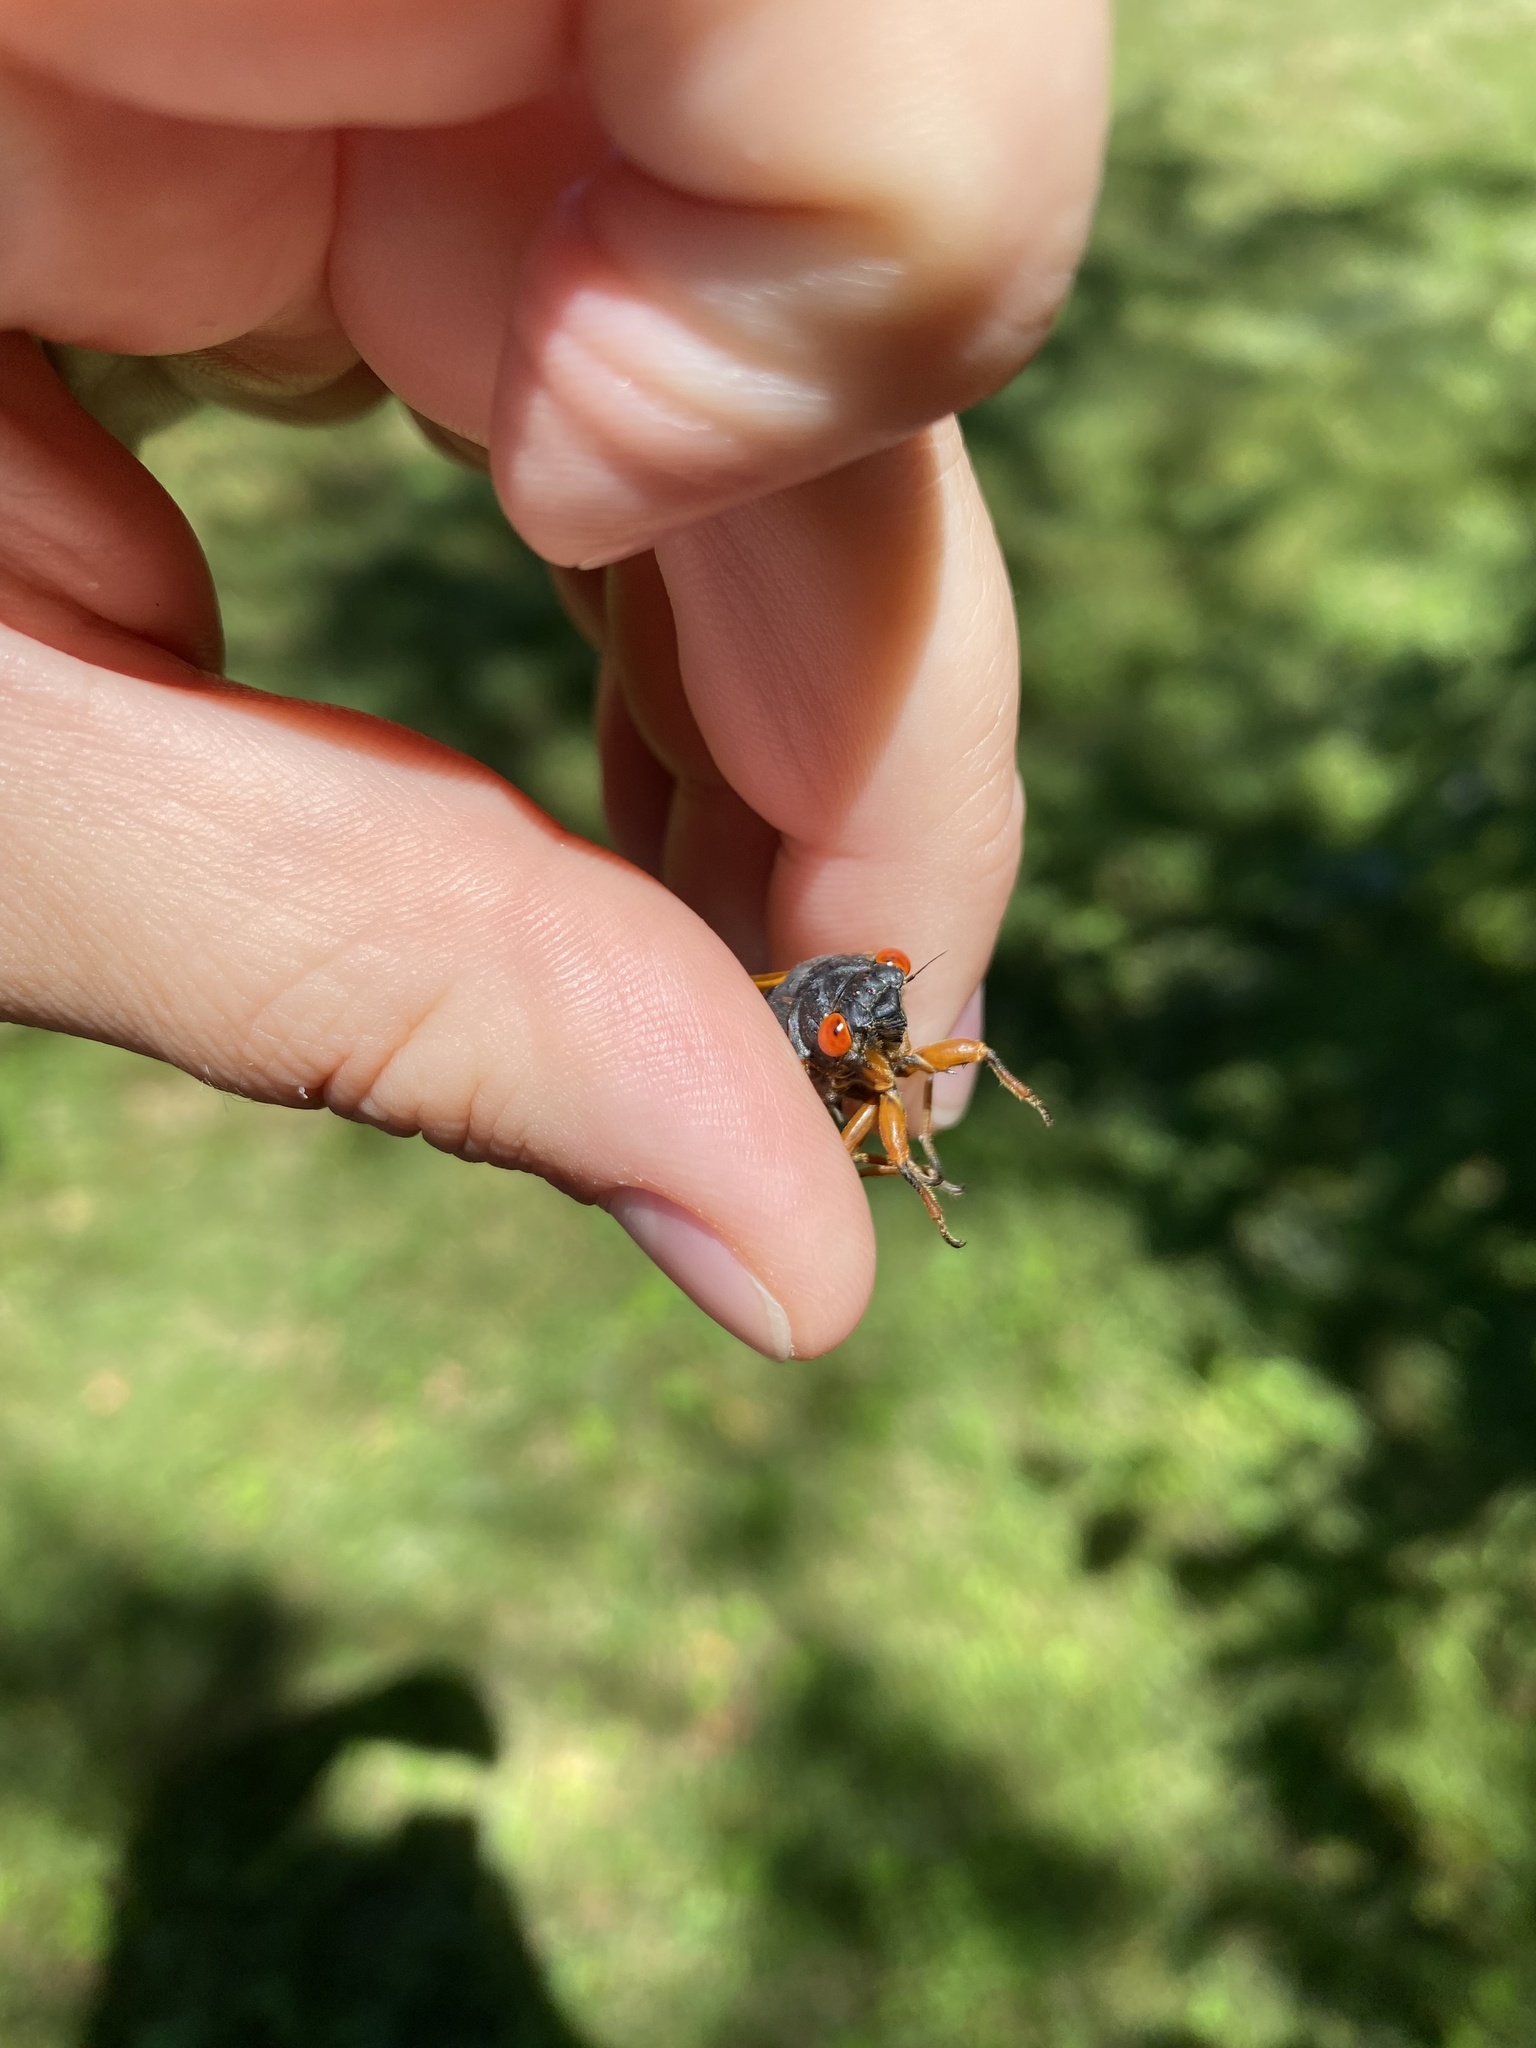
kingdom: Animalia
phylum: Arthropoda
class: Insecta
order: Hemiptera
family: Cicadidae
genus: Magicicada
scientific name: Magicicada cassini
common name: Cassin's 17-year cicada
